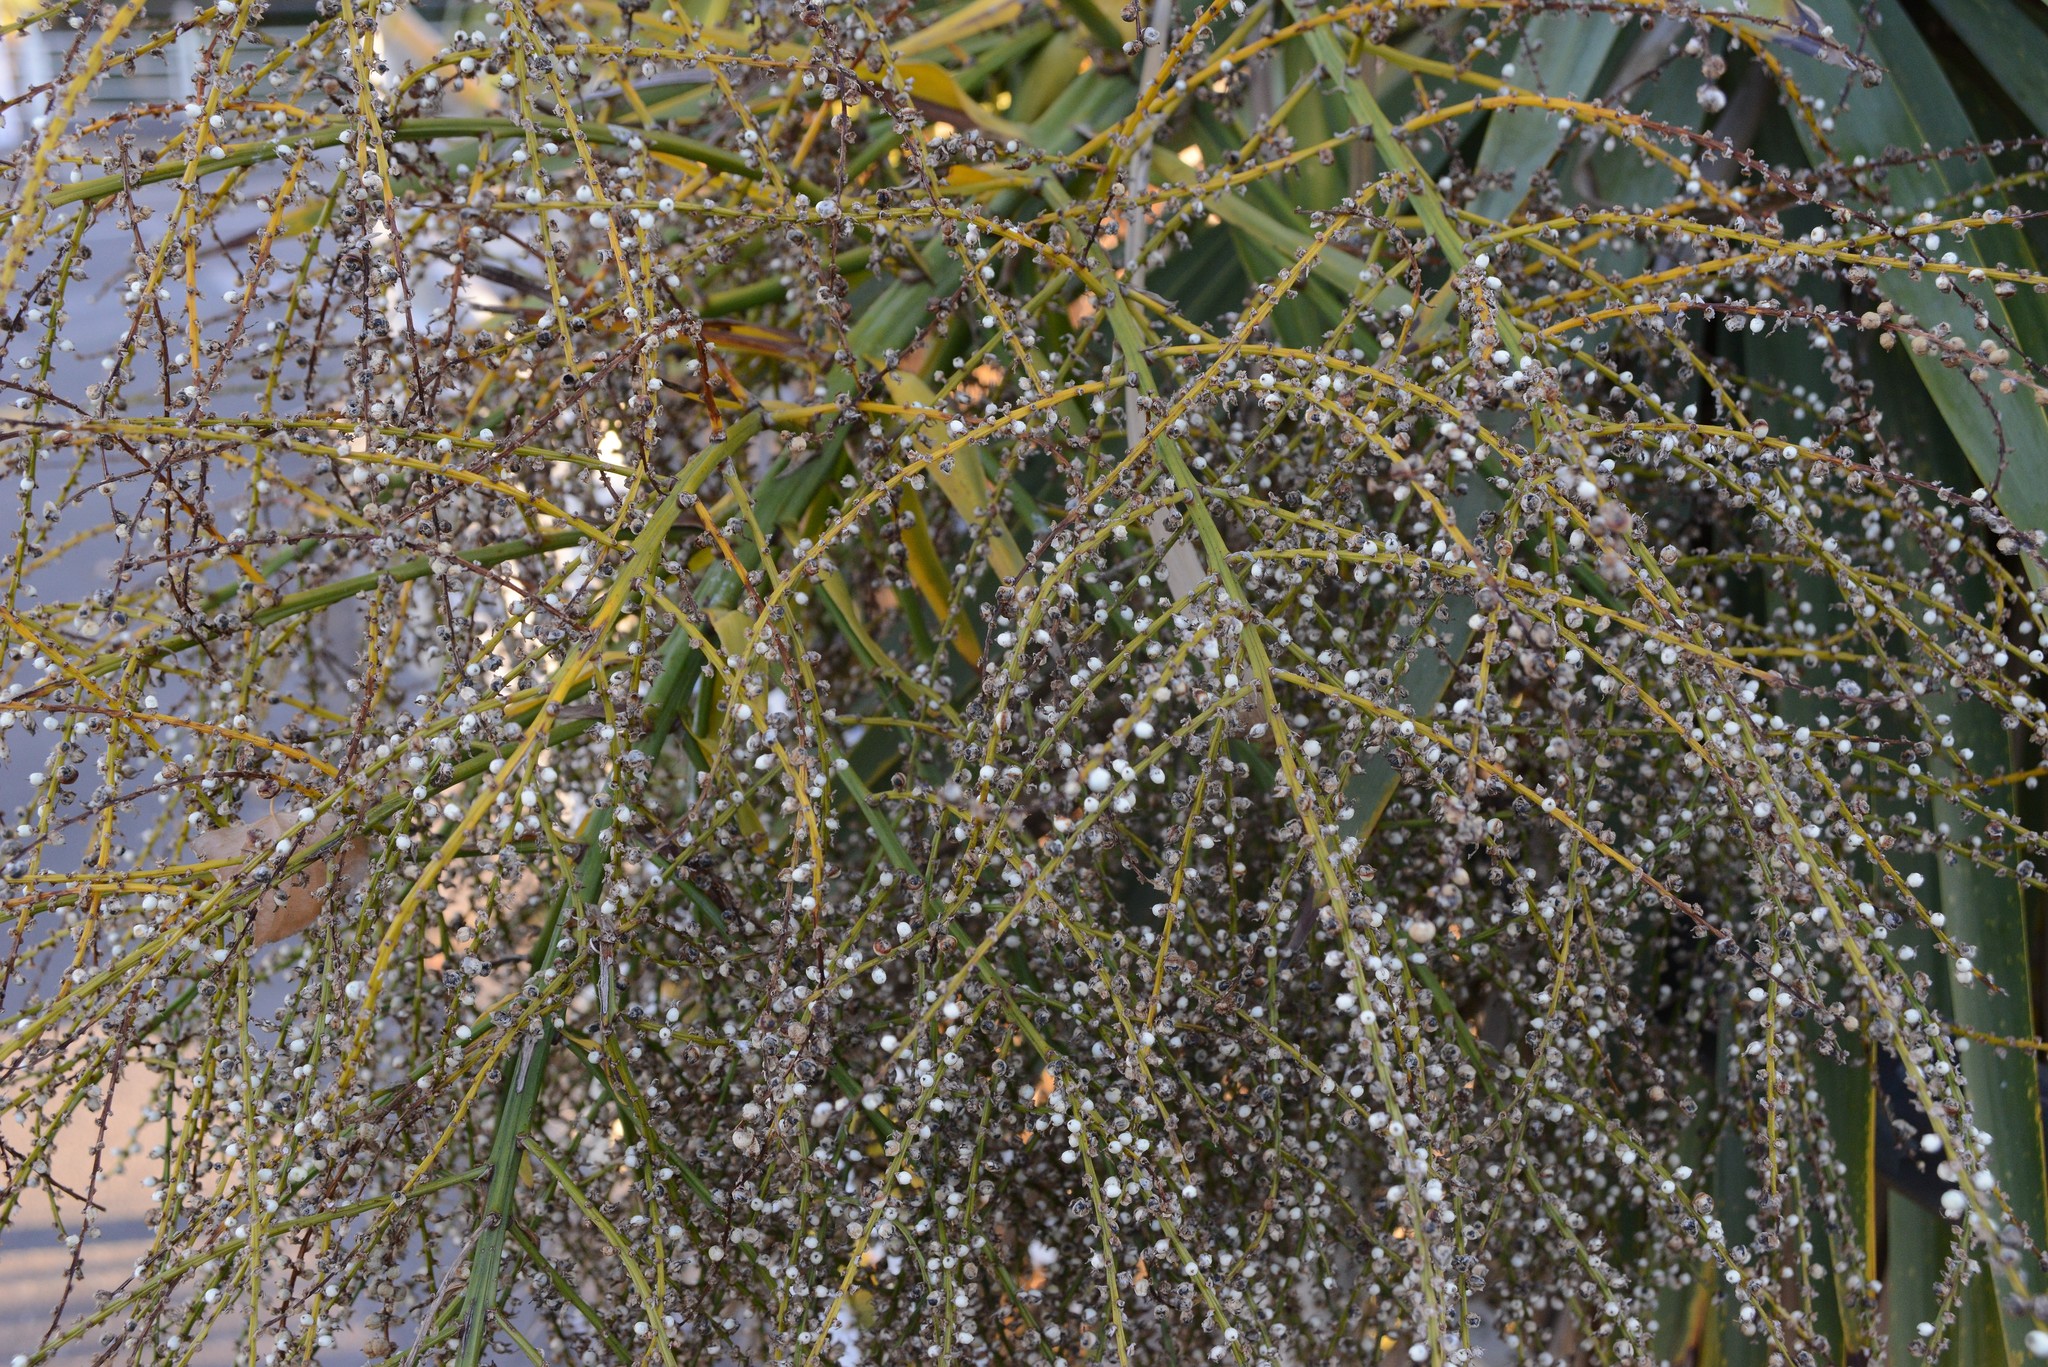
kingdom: Plantae
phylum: Tracheophyta
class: Liliopsida
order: Asparagales
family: Asparagaceae
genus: Cordyline
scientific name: Cordyline australis
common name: Cabbage-palm
